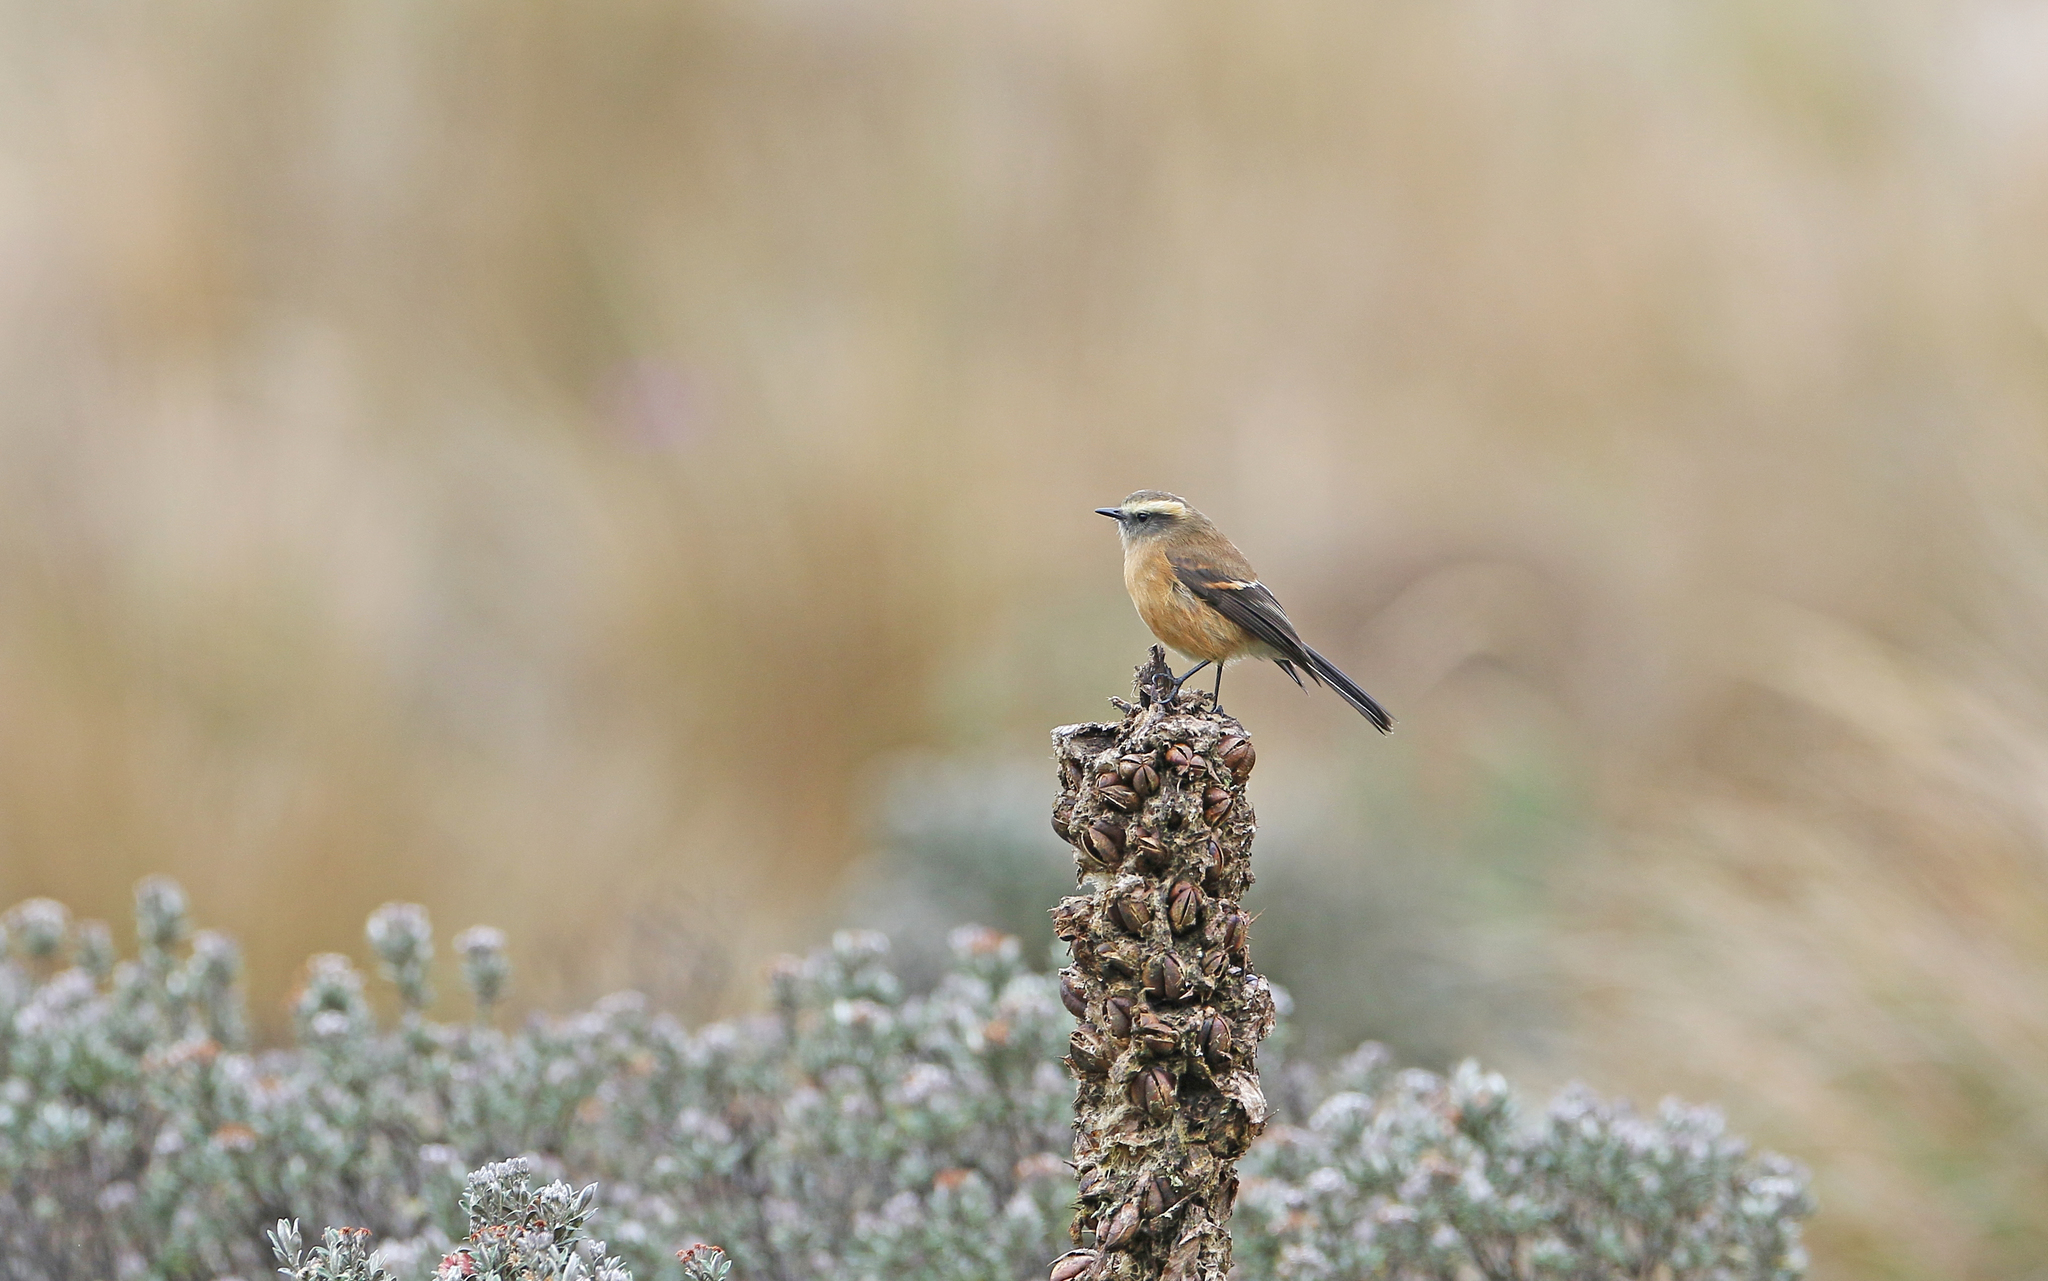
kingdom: Animalia
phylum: Chordata
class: Aves
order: Passeriformes
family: Tyrannidae
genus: Ochthoeca
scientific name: Ochthoeca fumicolor
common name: Brown-backed chat-tyrant
